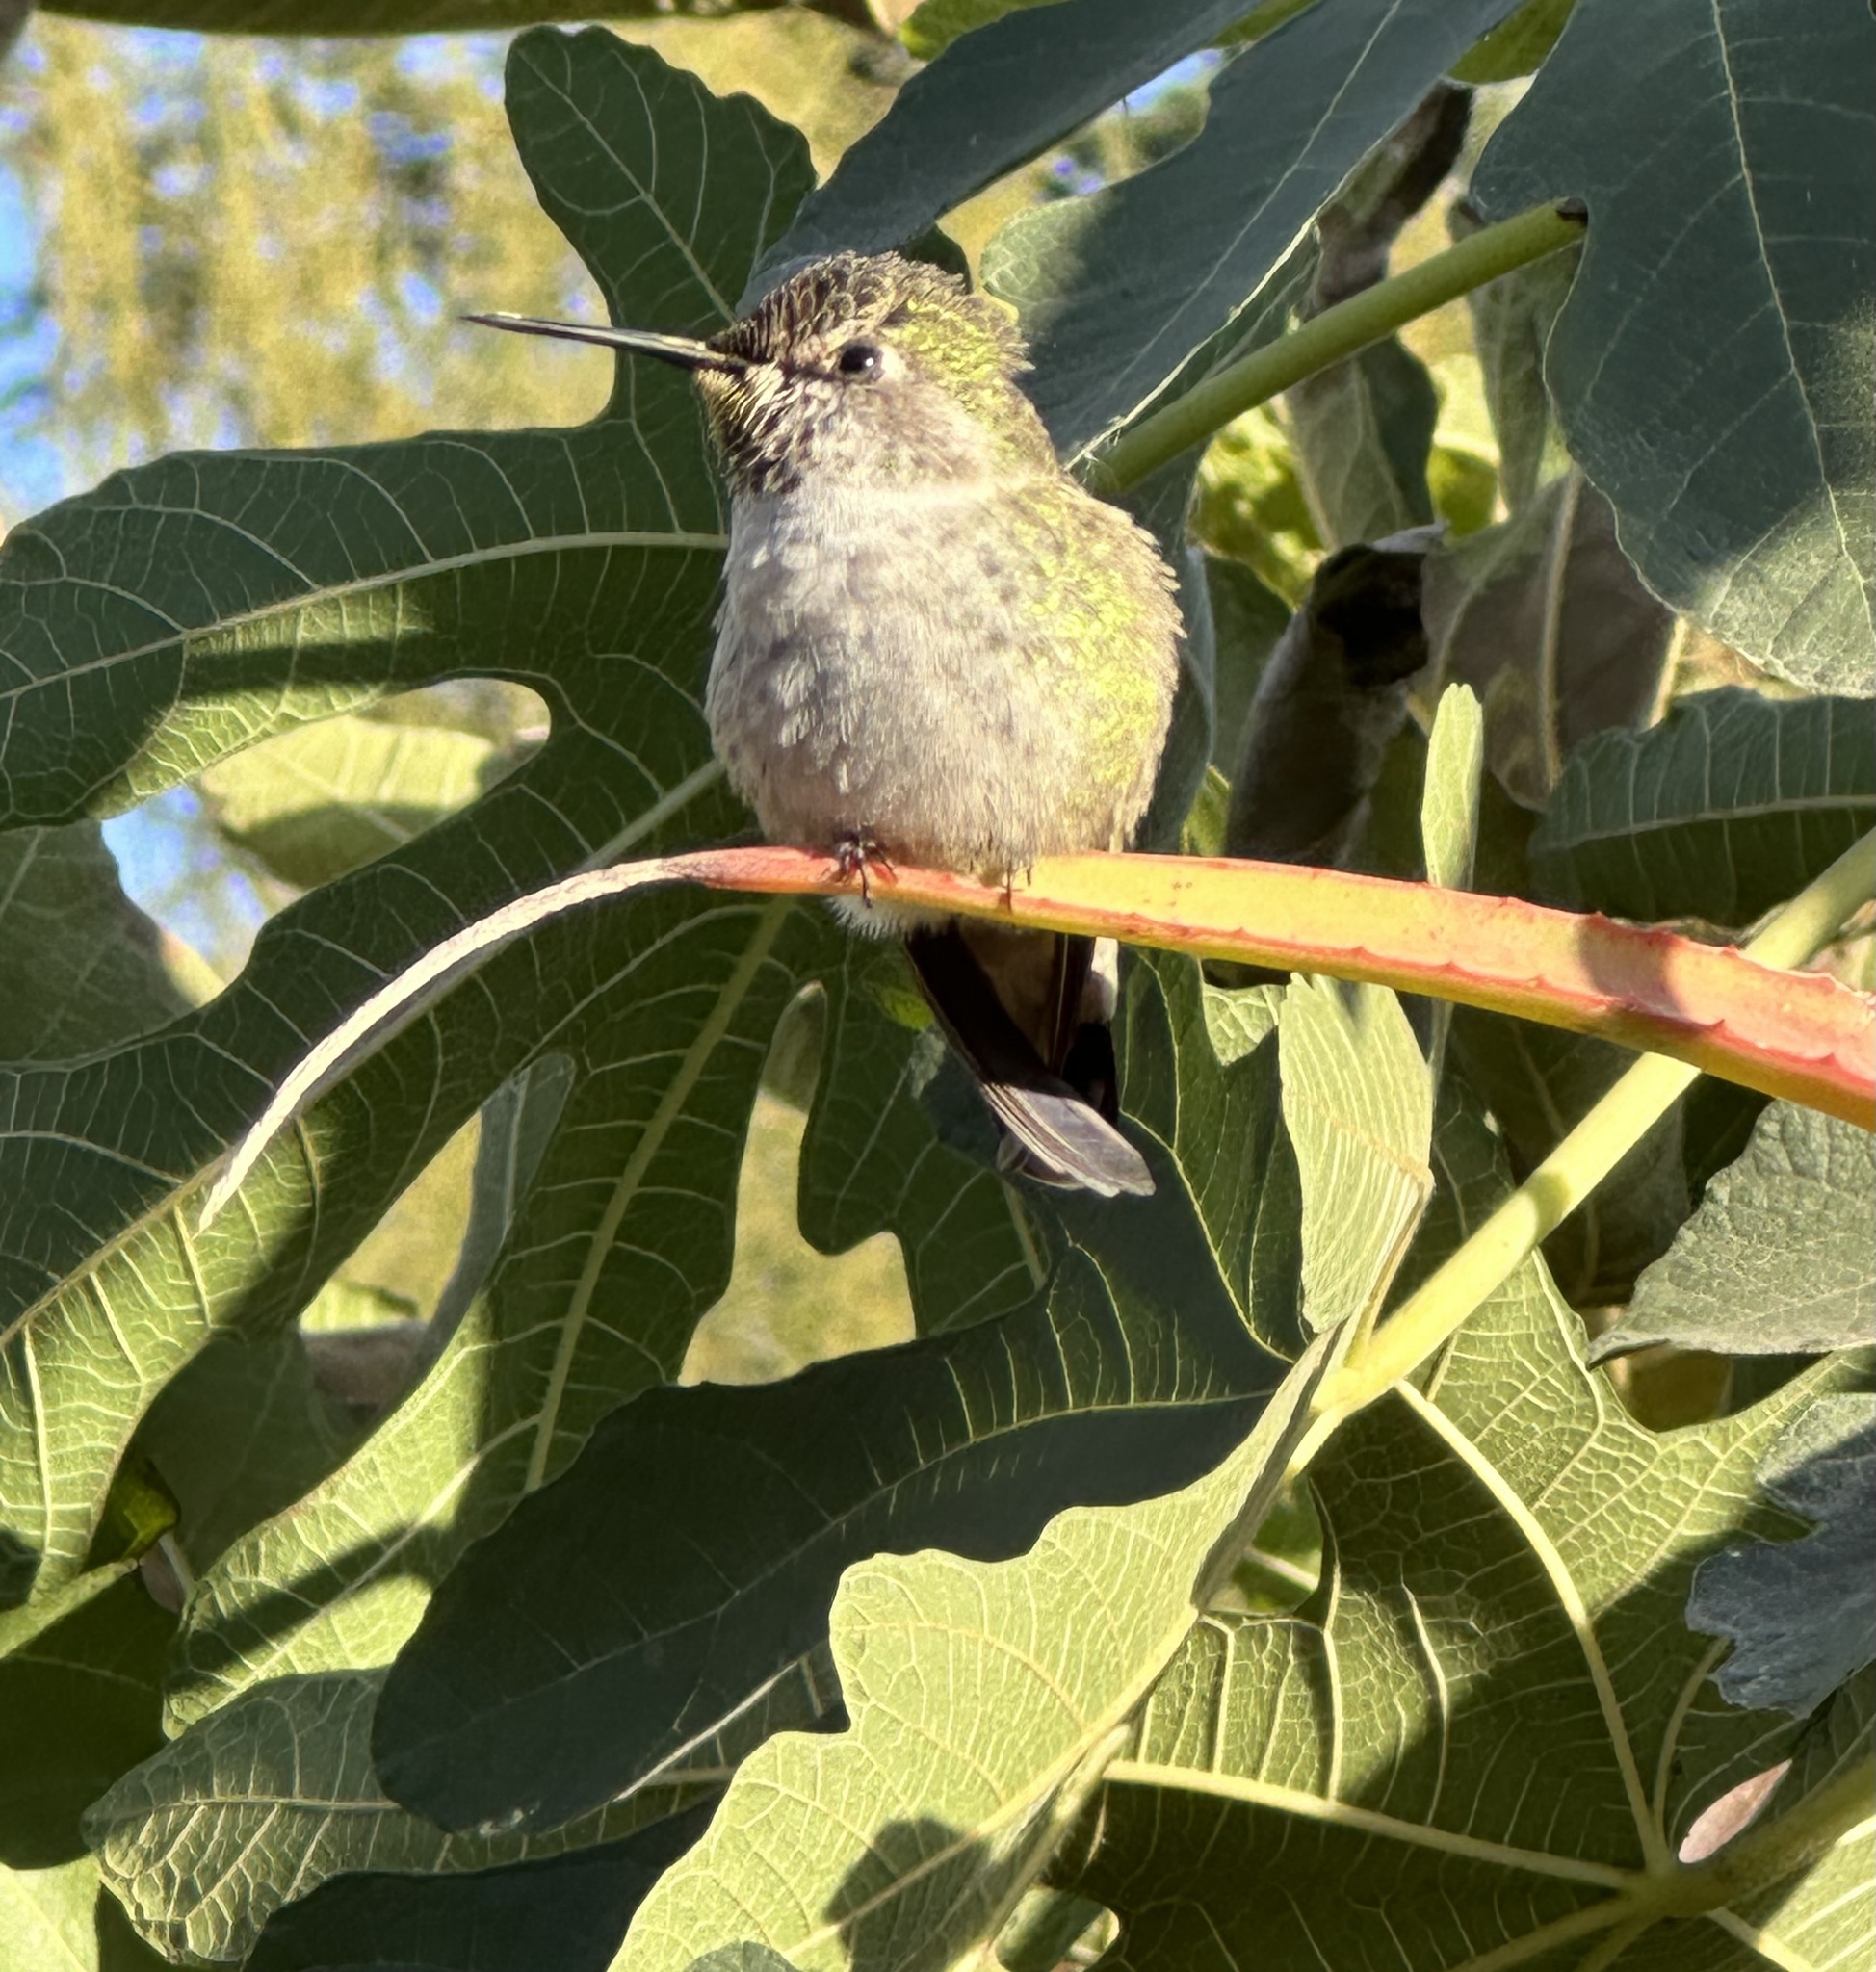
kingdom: Animalia
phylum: Chordata
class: Aves
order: Apodiformes
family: Trochilidae
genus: Calypte
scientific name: Calypte anna
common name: Anna's hummingbird
